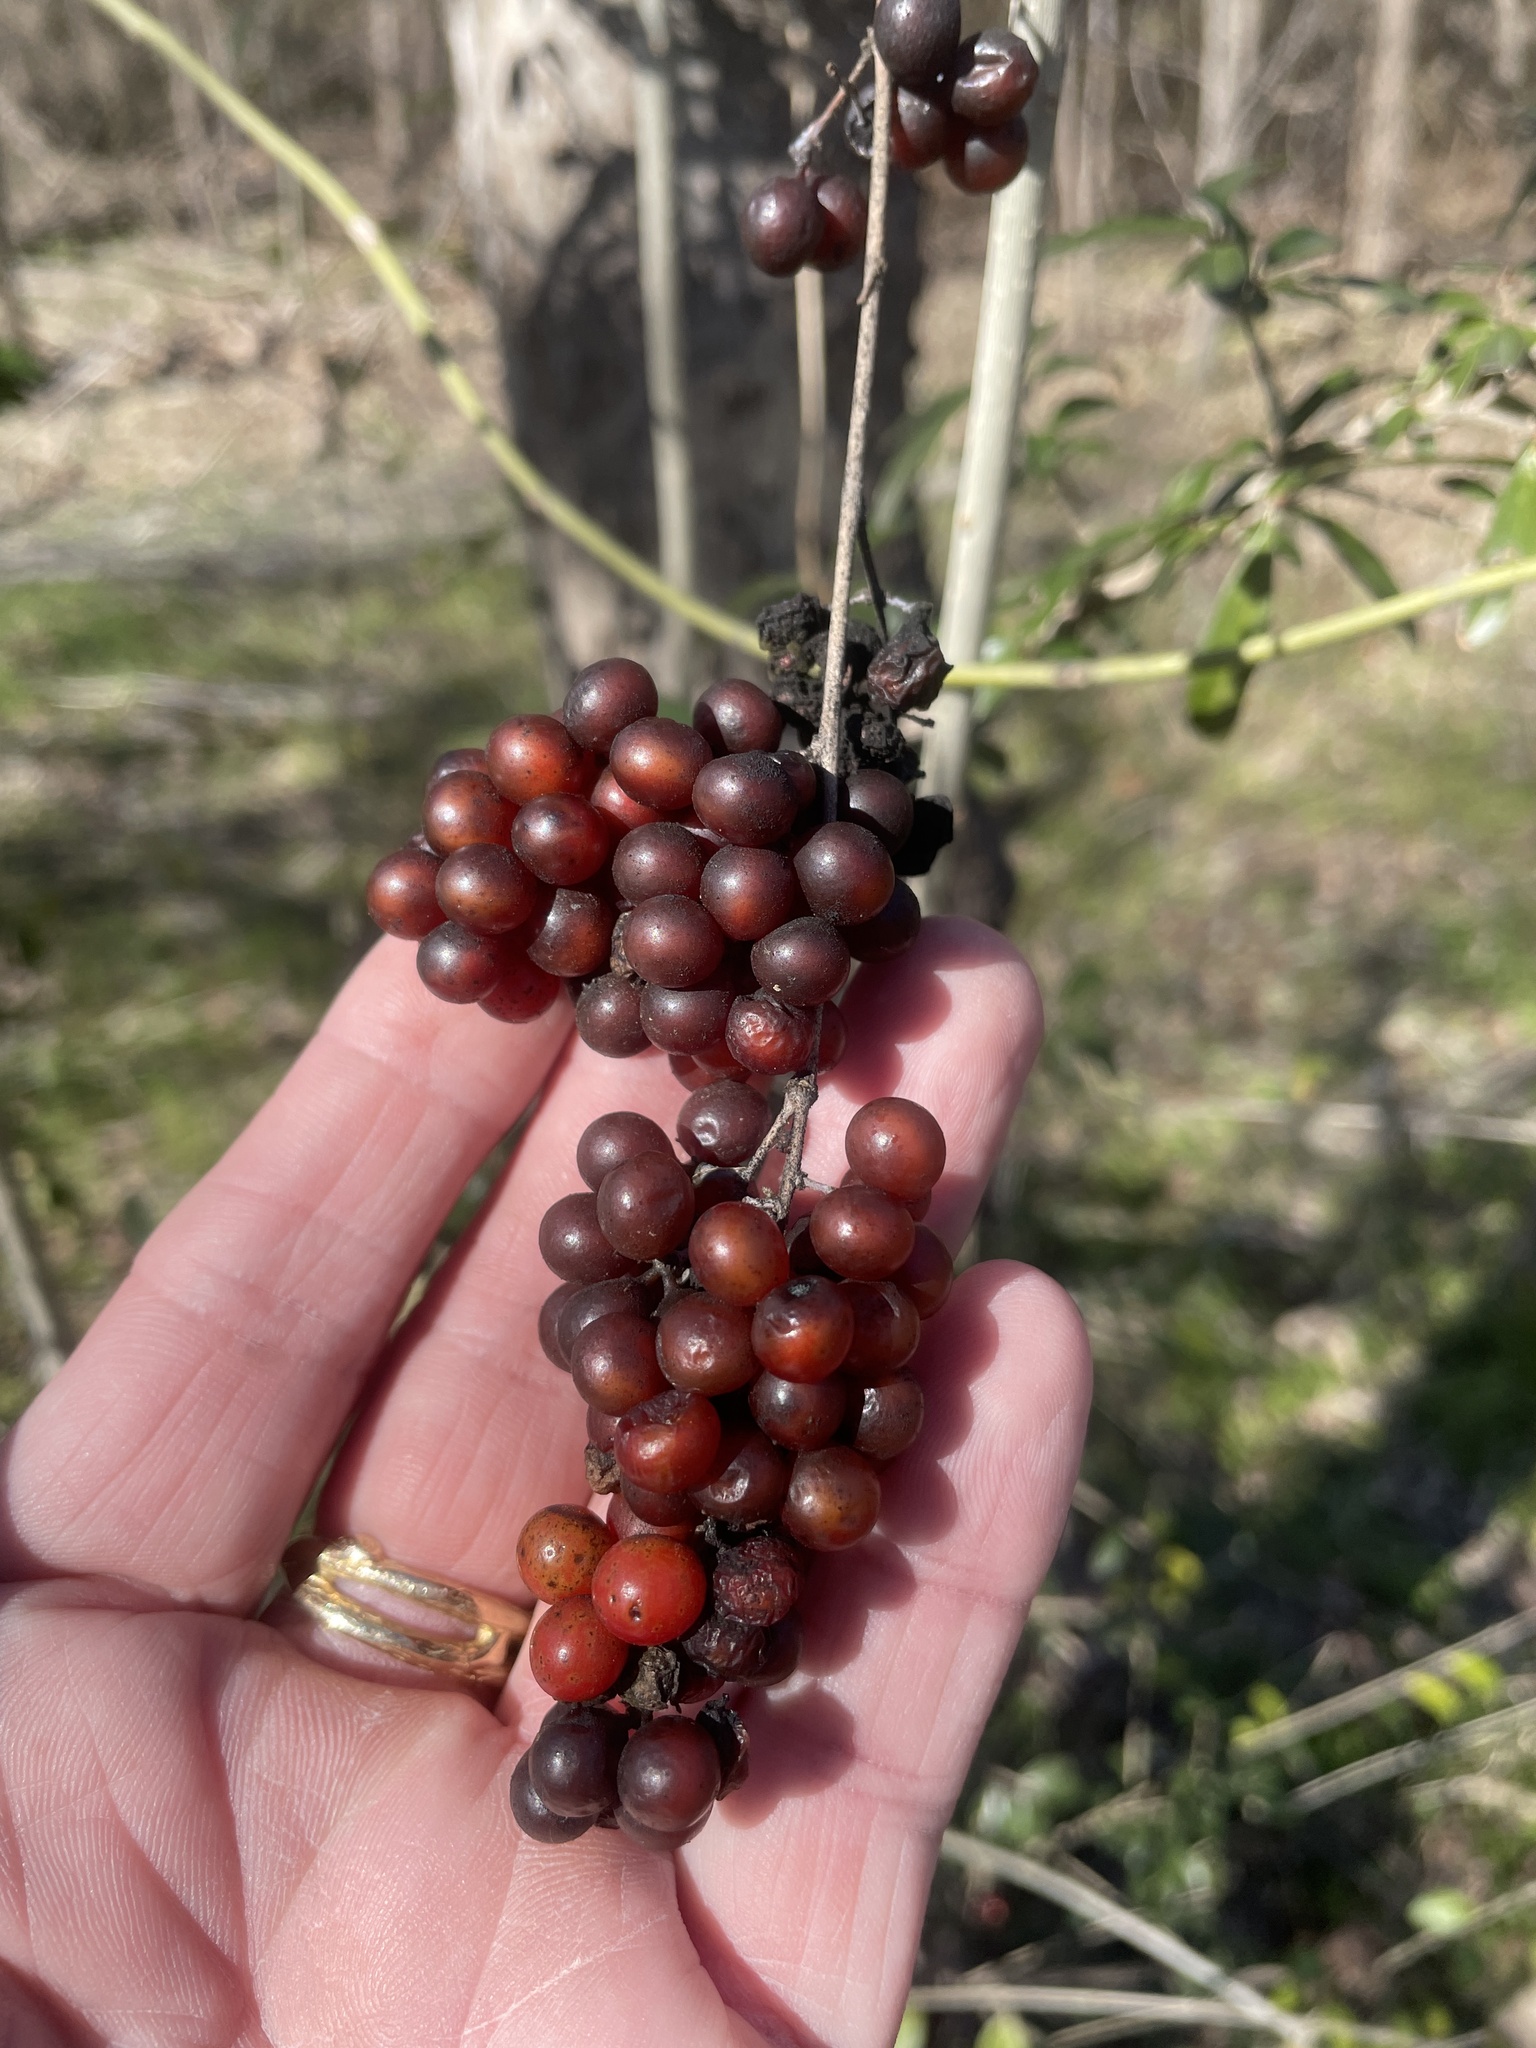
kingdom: Plantae
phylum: Tracheophyta
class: Magnoliopsida
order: Ranunculales
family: Menispermaceae
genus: Cocculus
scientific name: Cocculus carolinus
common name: Carolina moonseed
